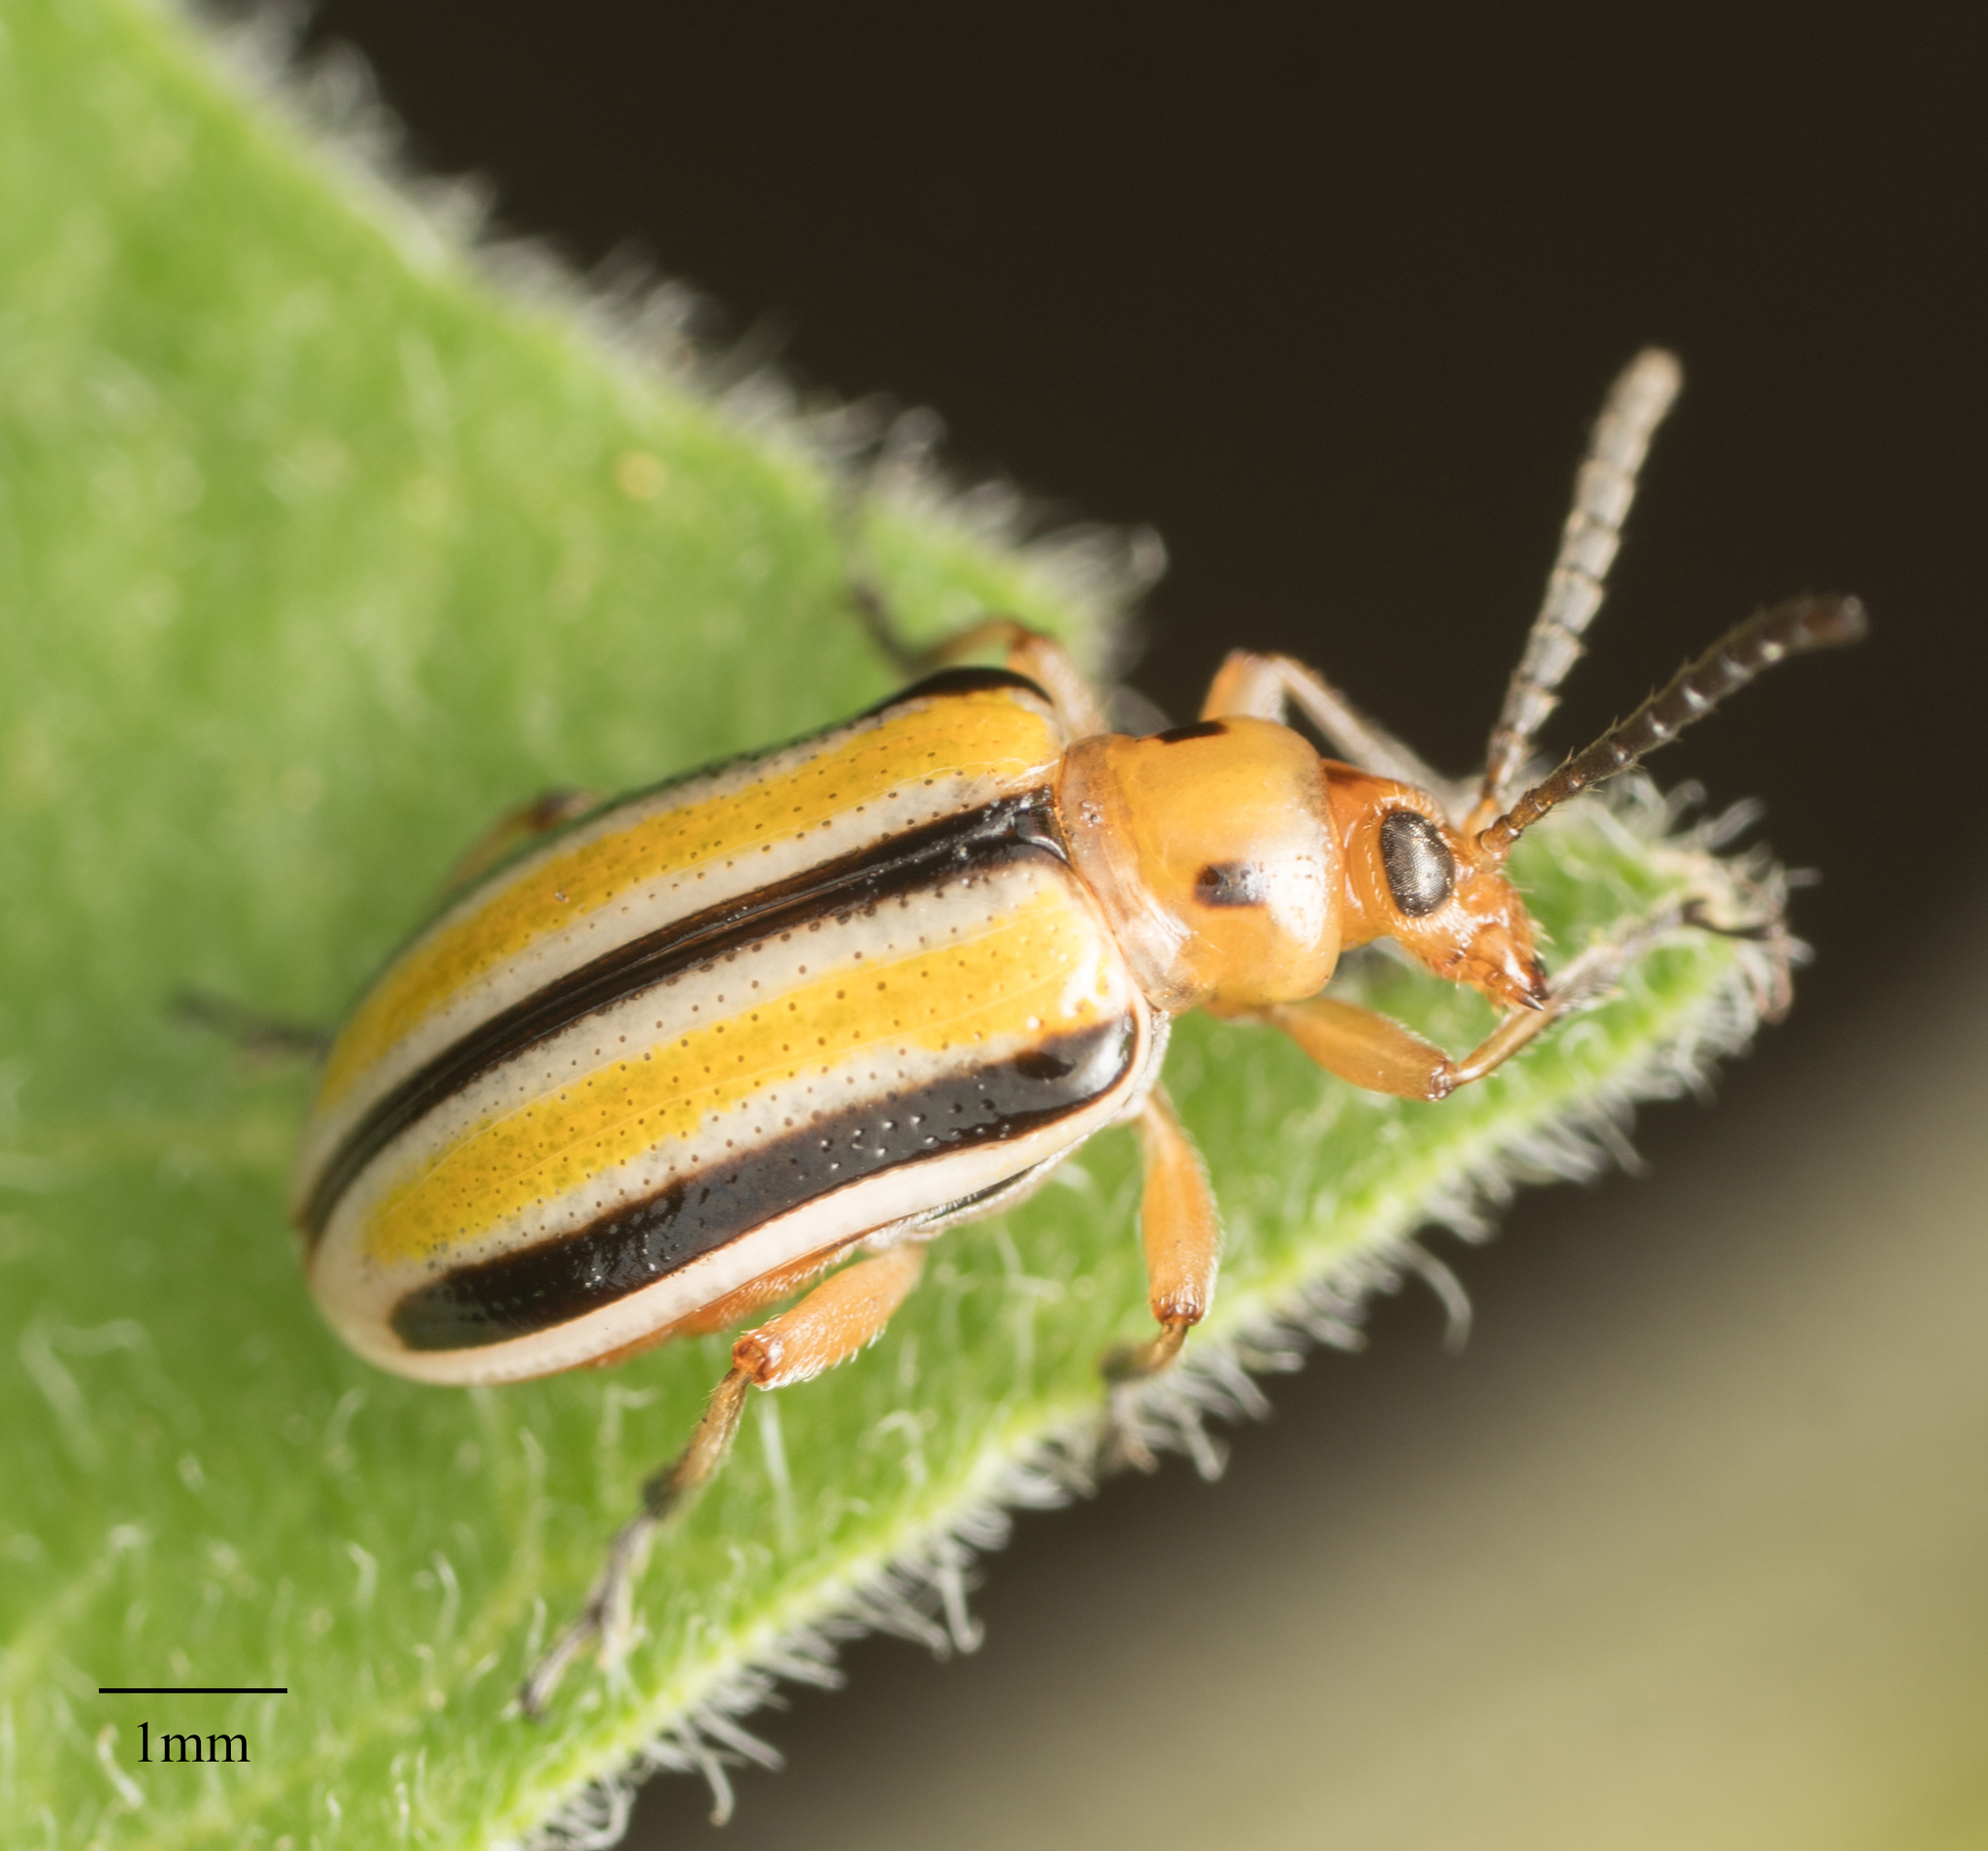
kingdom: Animalia
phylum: Arthropoda
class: Insecta
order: Coleoptera
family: Chrysomelidae
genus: Lema
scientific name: Lema daturaphila
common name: Leaf beetle
